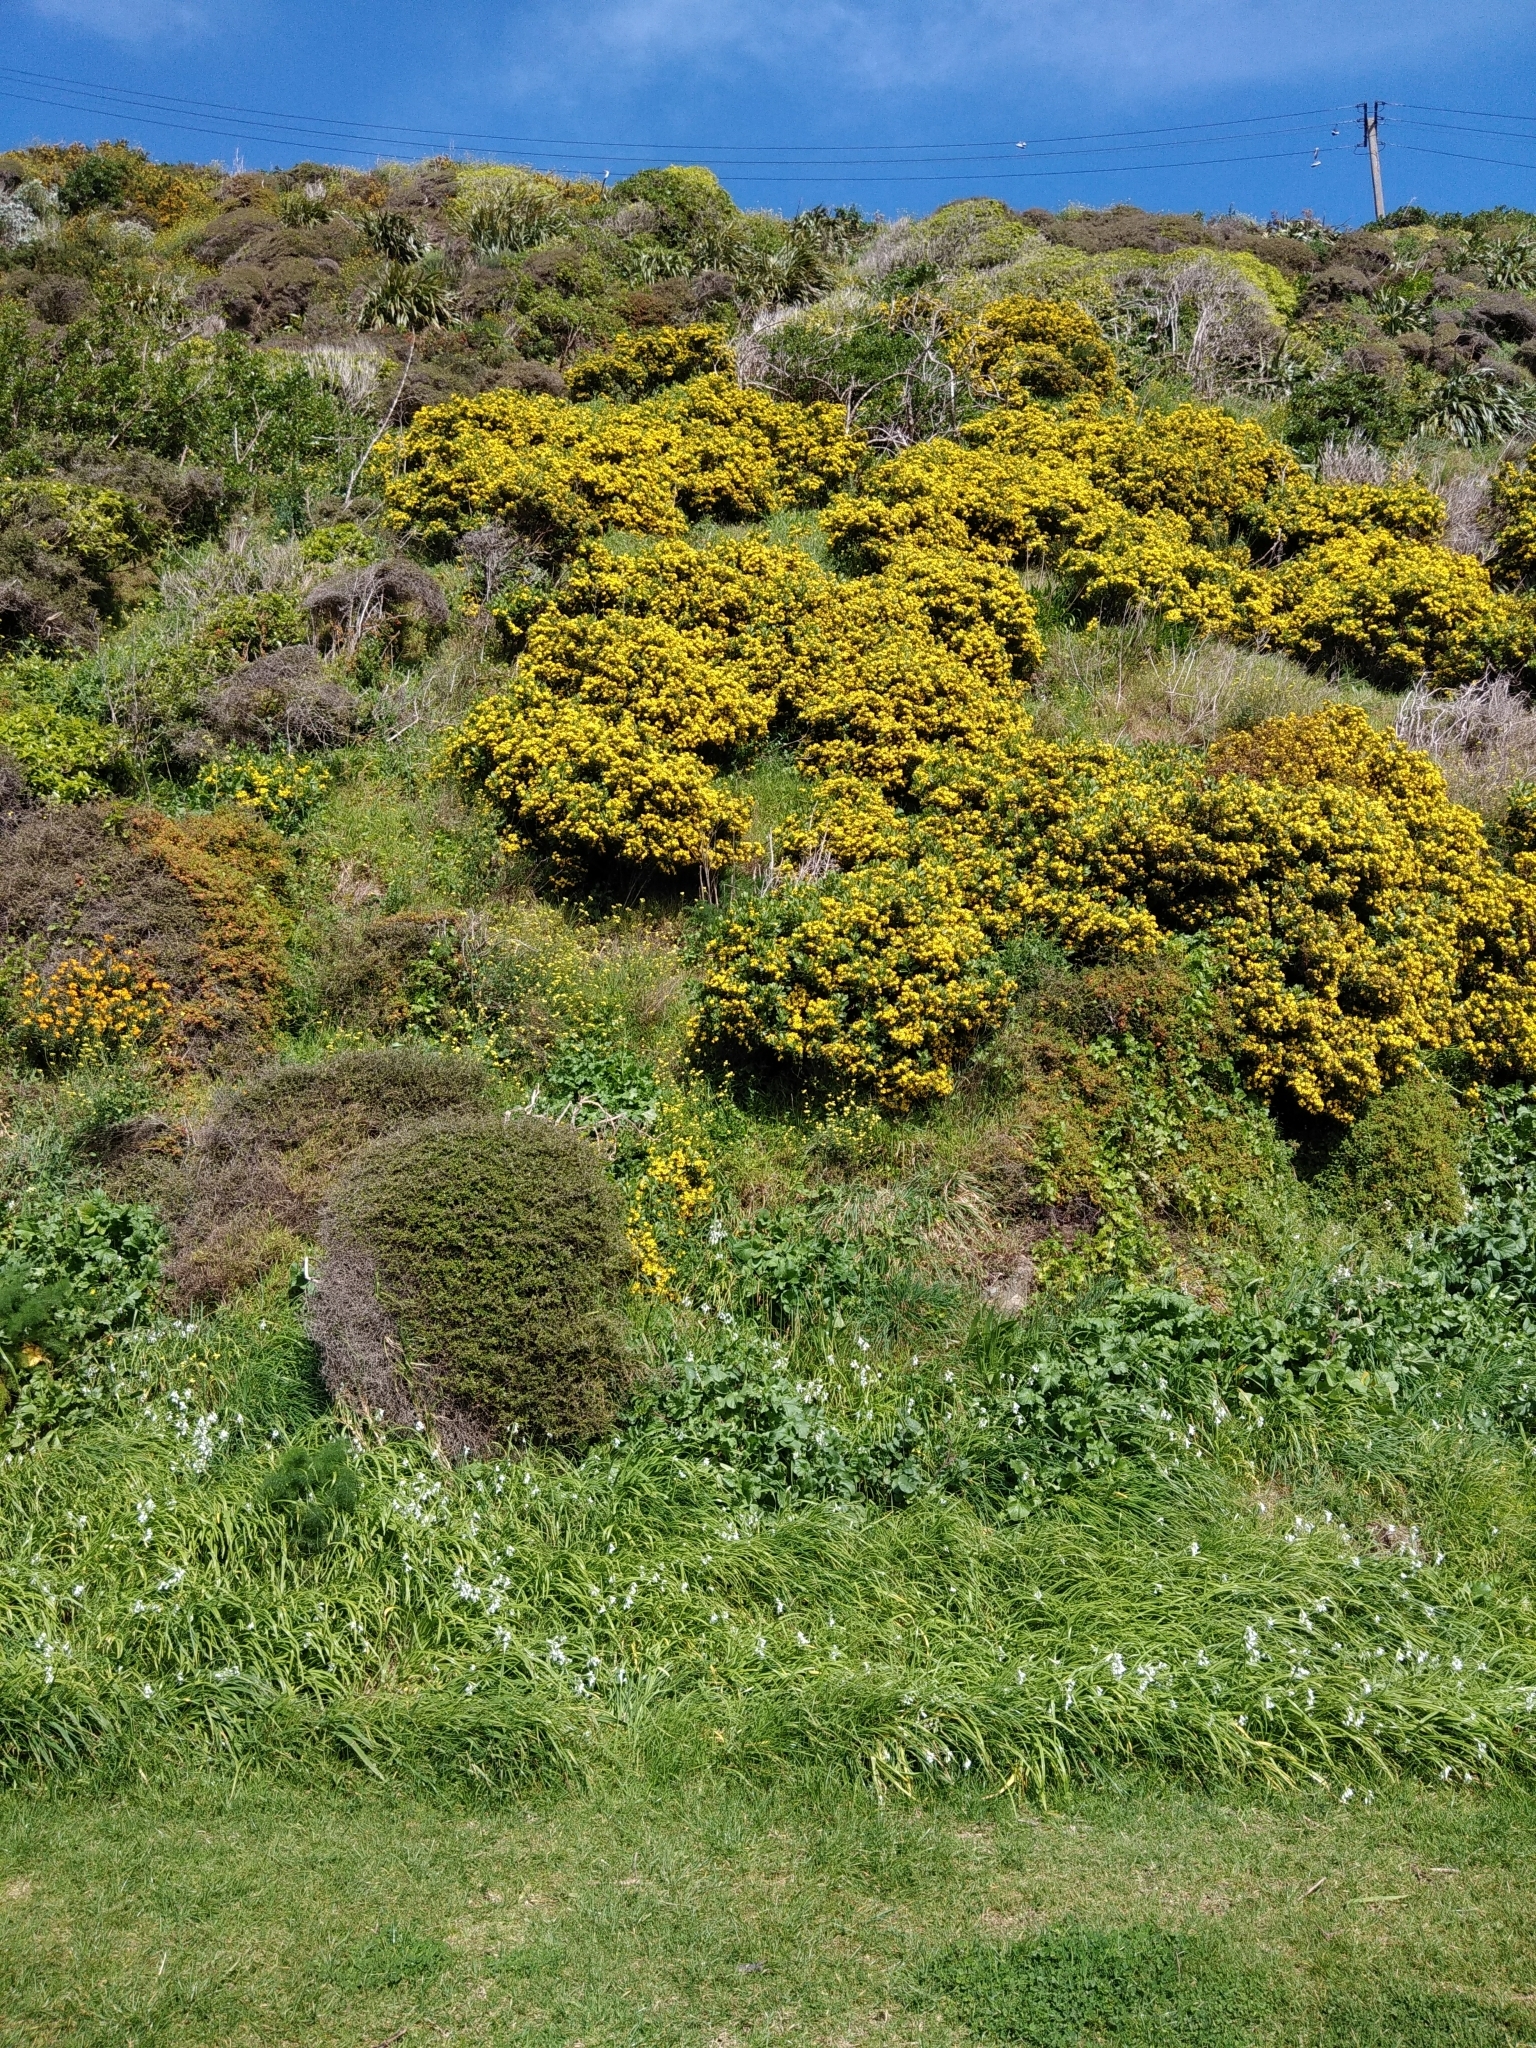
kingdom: Plantae
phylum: Tracheophyta
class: Magnoliopsida
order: Asterales
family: Asteraceae
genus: Osteospermum
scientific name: Osteospermum moniliferum
